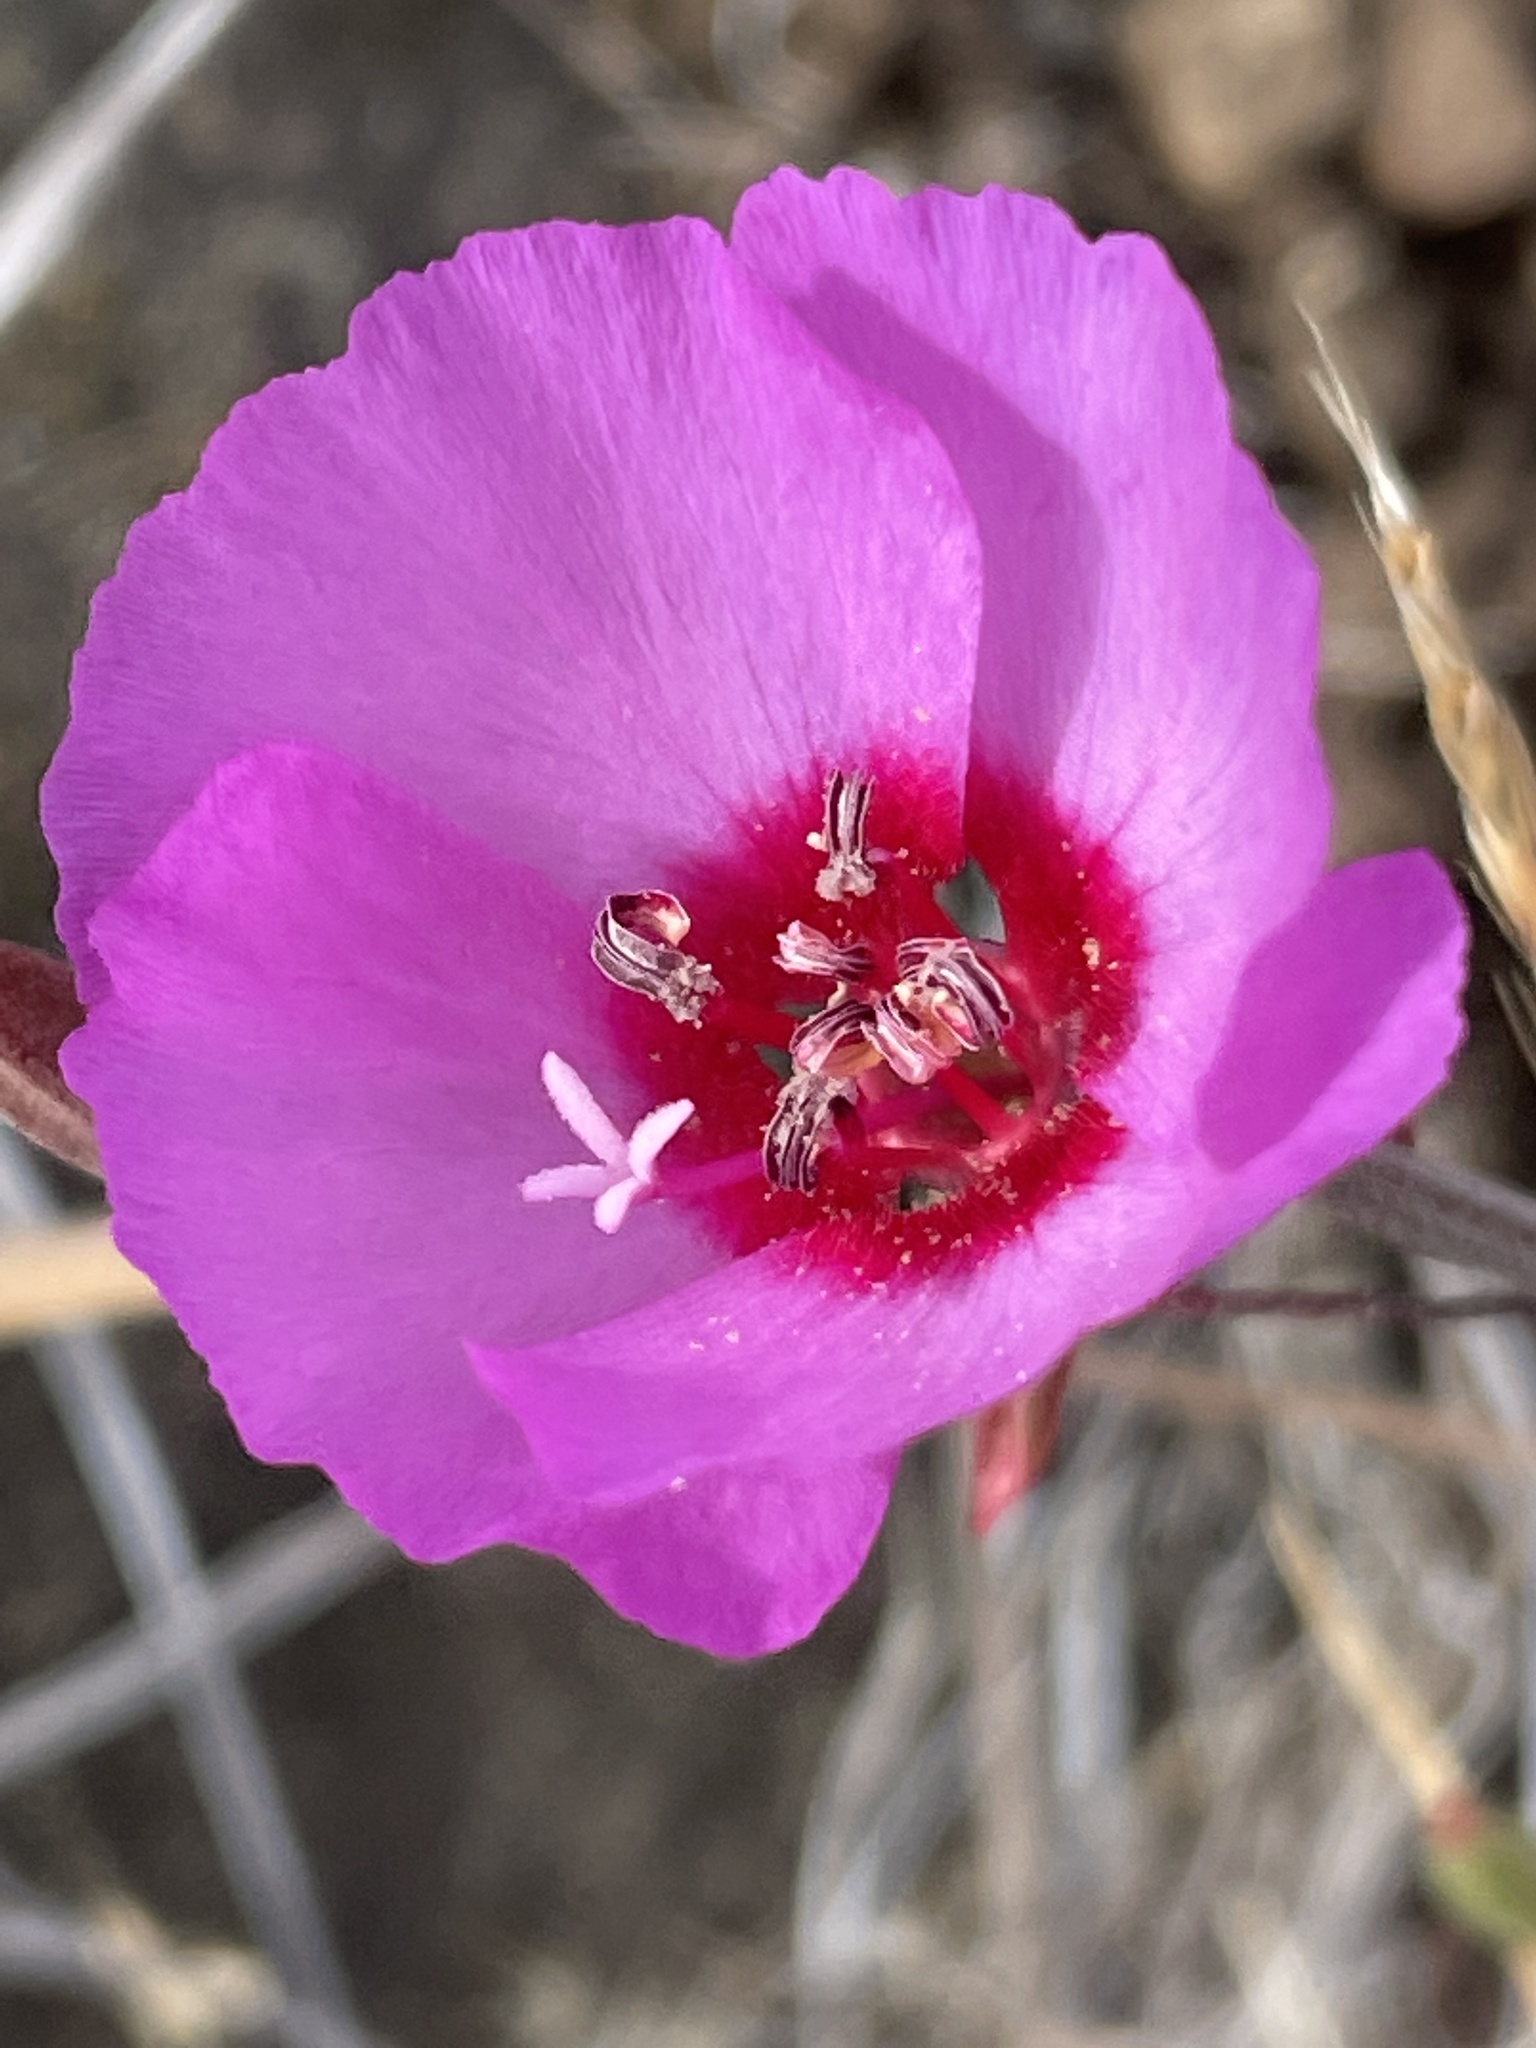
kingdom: Plantae
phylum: Tracheophyta
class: Magnoliopsida
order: Myrtales
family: Onagraceae
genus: Clarkia
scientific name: Clarkia rubicunda
